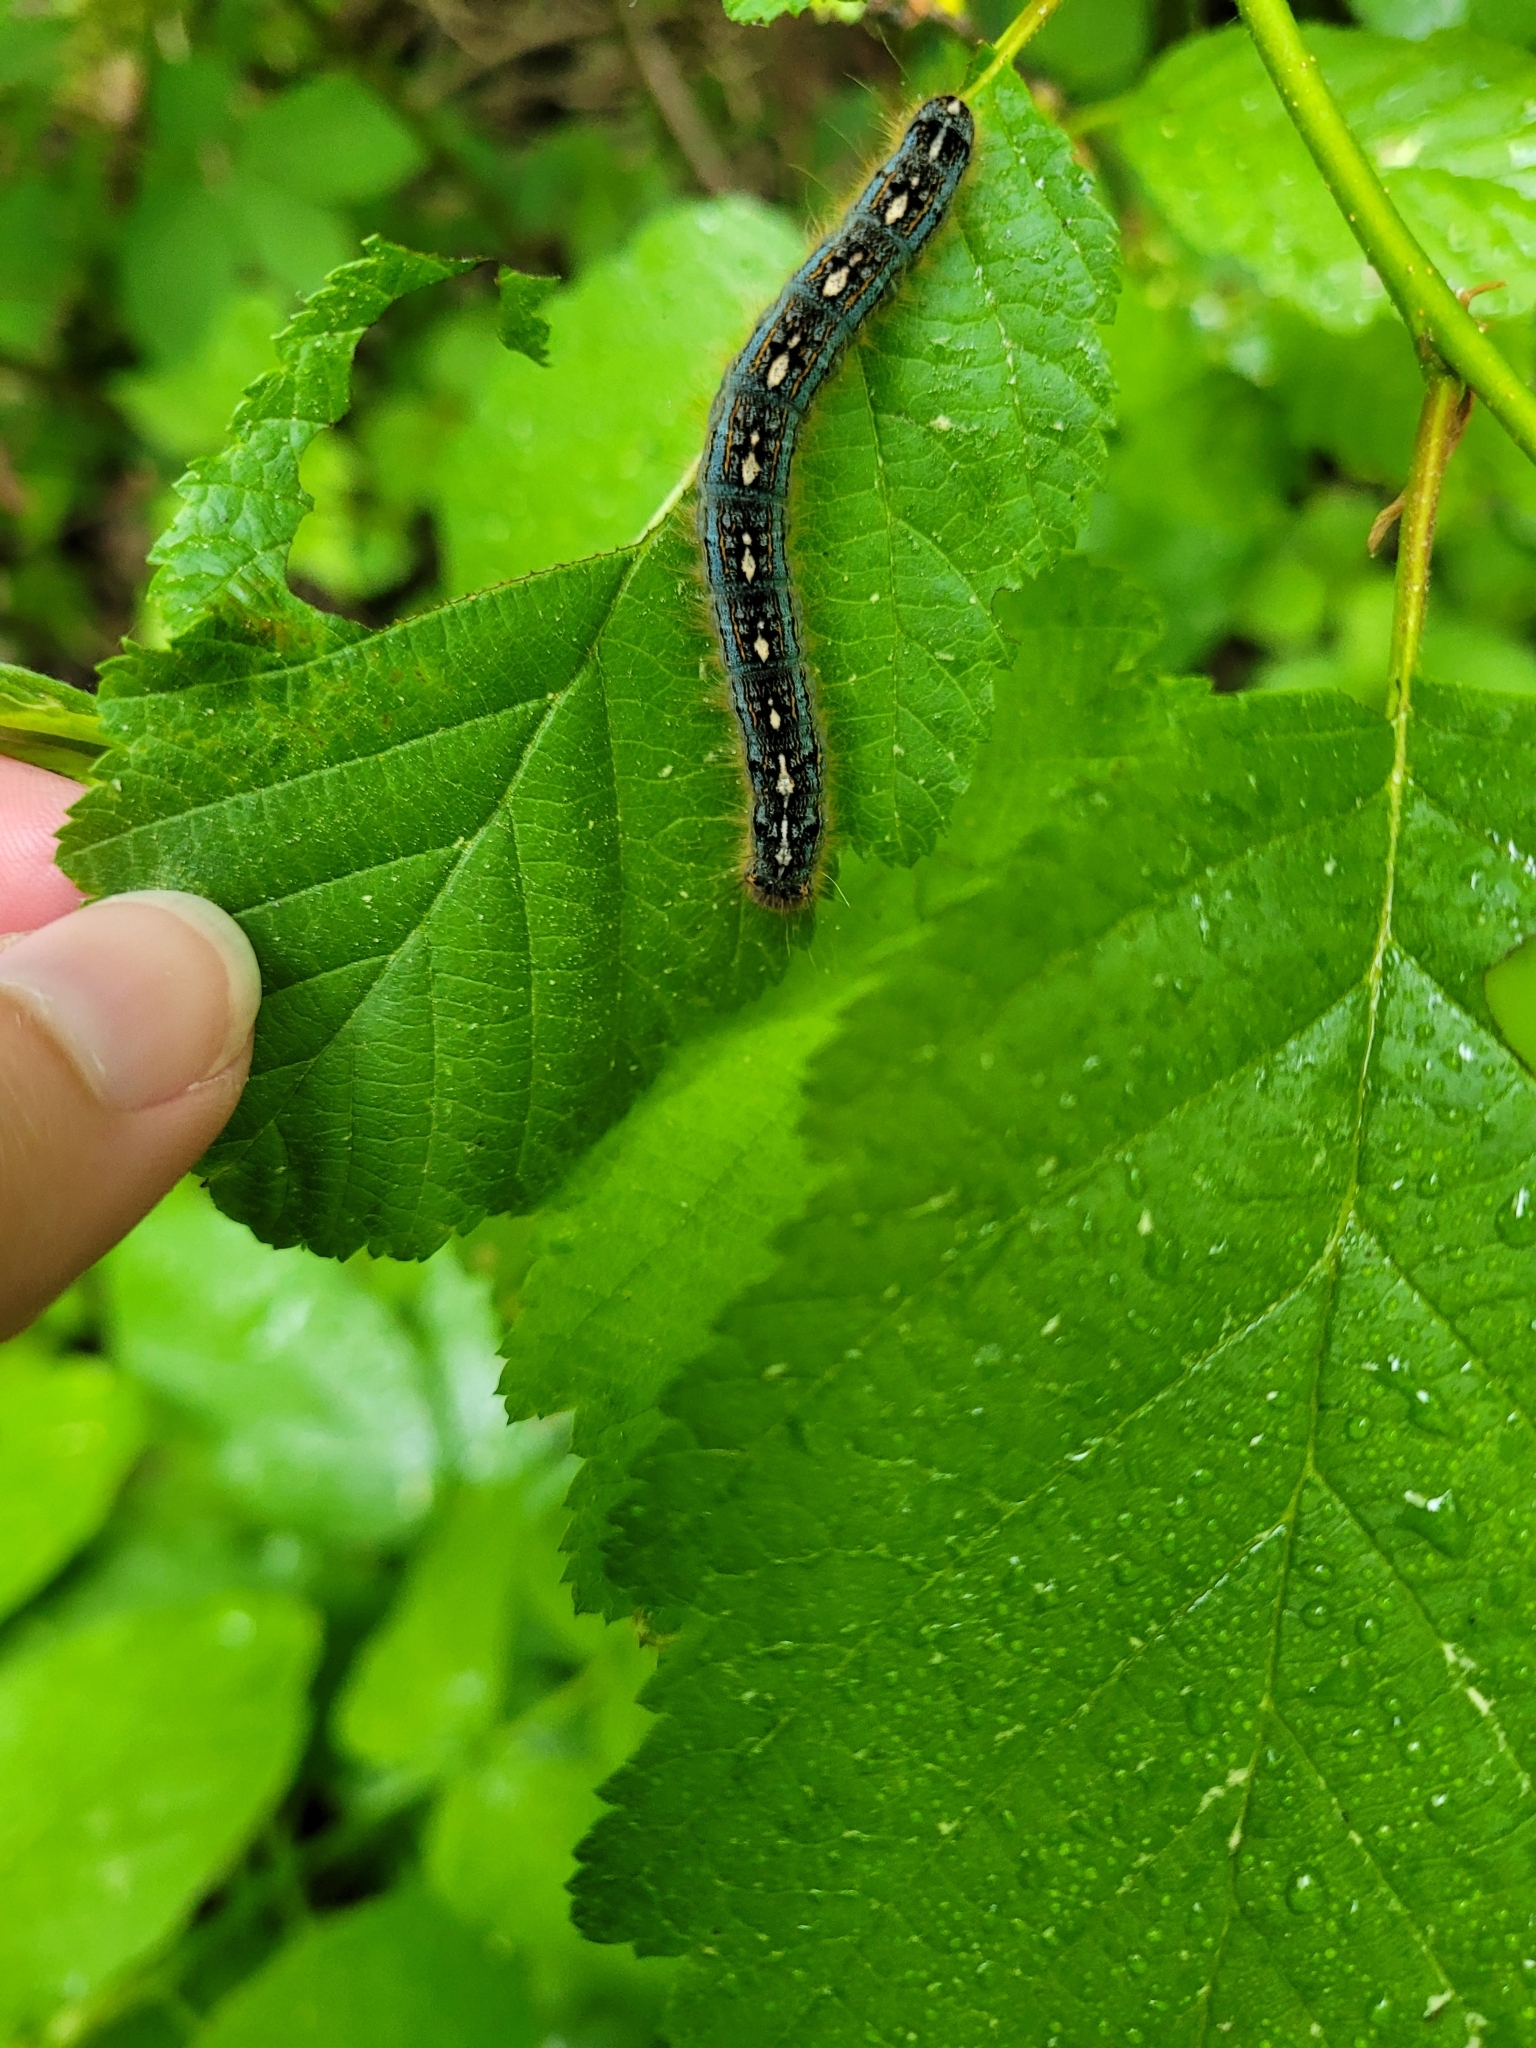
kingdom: Animalia
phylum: Arthropoda
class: Insecta
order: Lepidoptera
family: Lasiocampidae
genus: Malacosoma
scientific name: Malacosoma disstria
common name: Forest tent caterpillar
